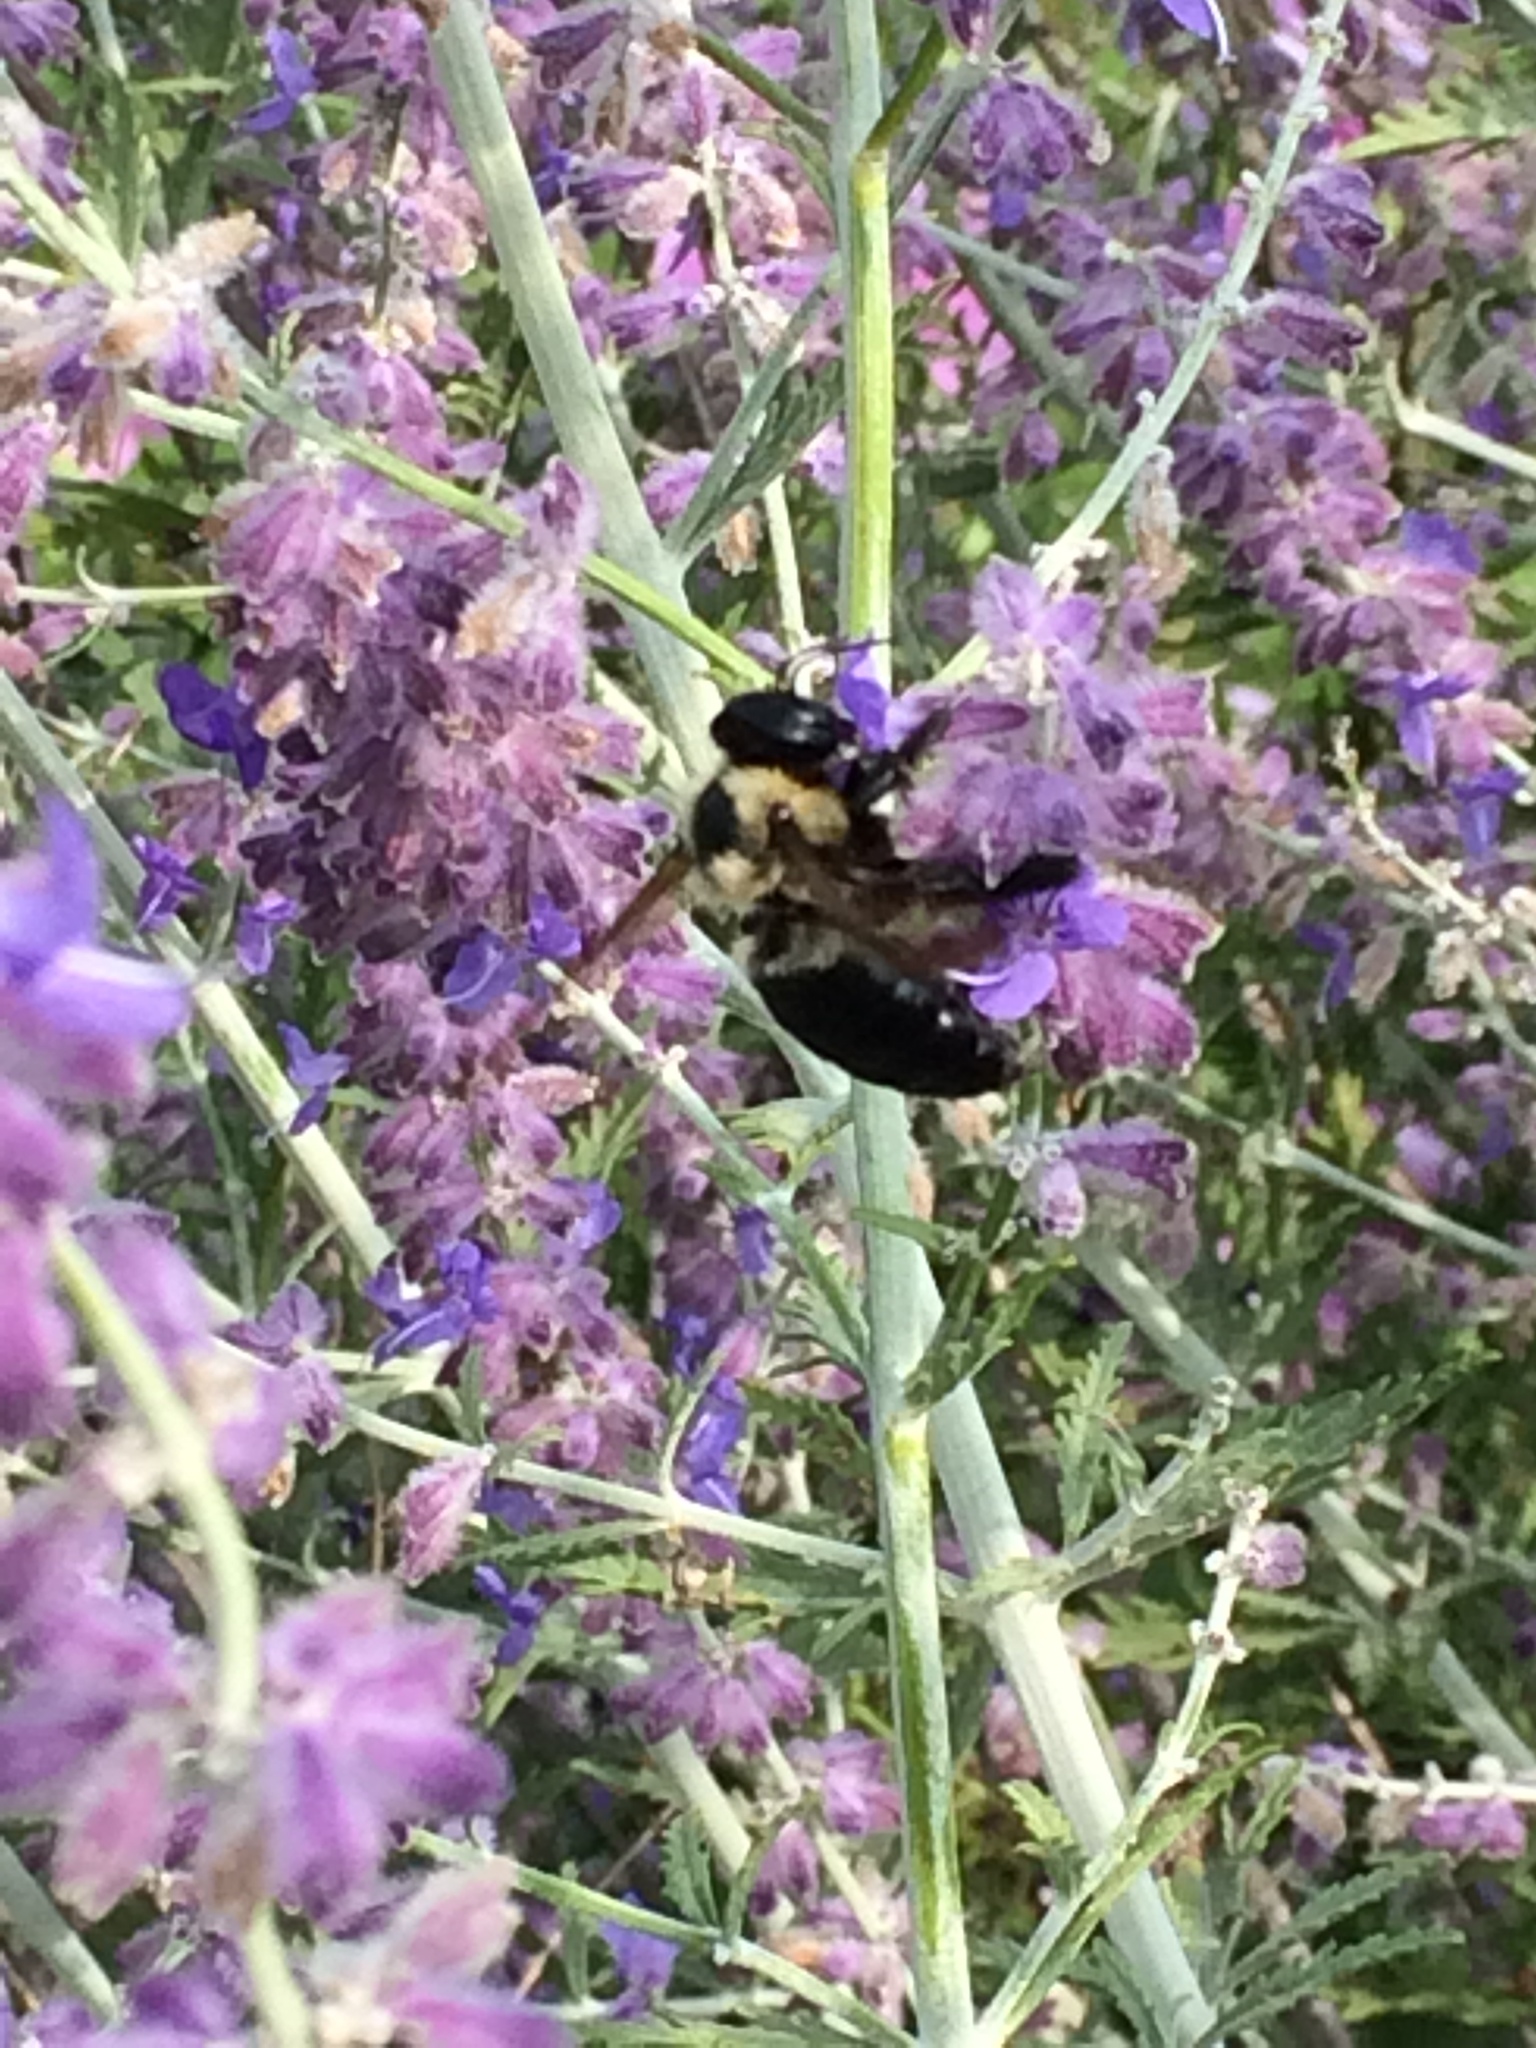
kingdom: Animalia
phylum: Arthropoda
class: Insecta
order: Hymenoptera
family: Apidae
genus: Xylocopa
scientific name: Xylocopa virginica
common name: Carpenter bee
